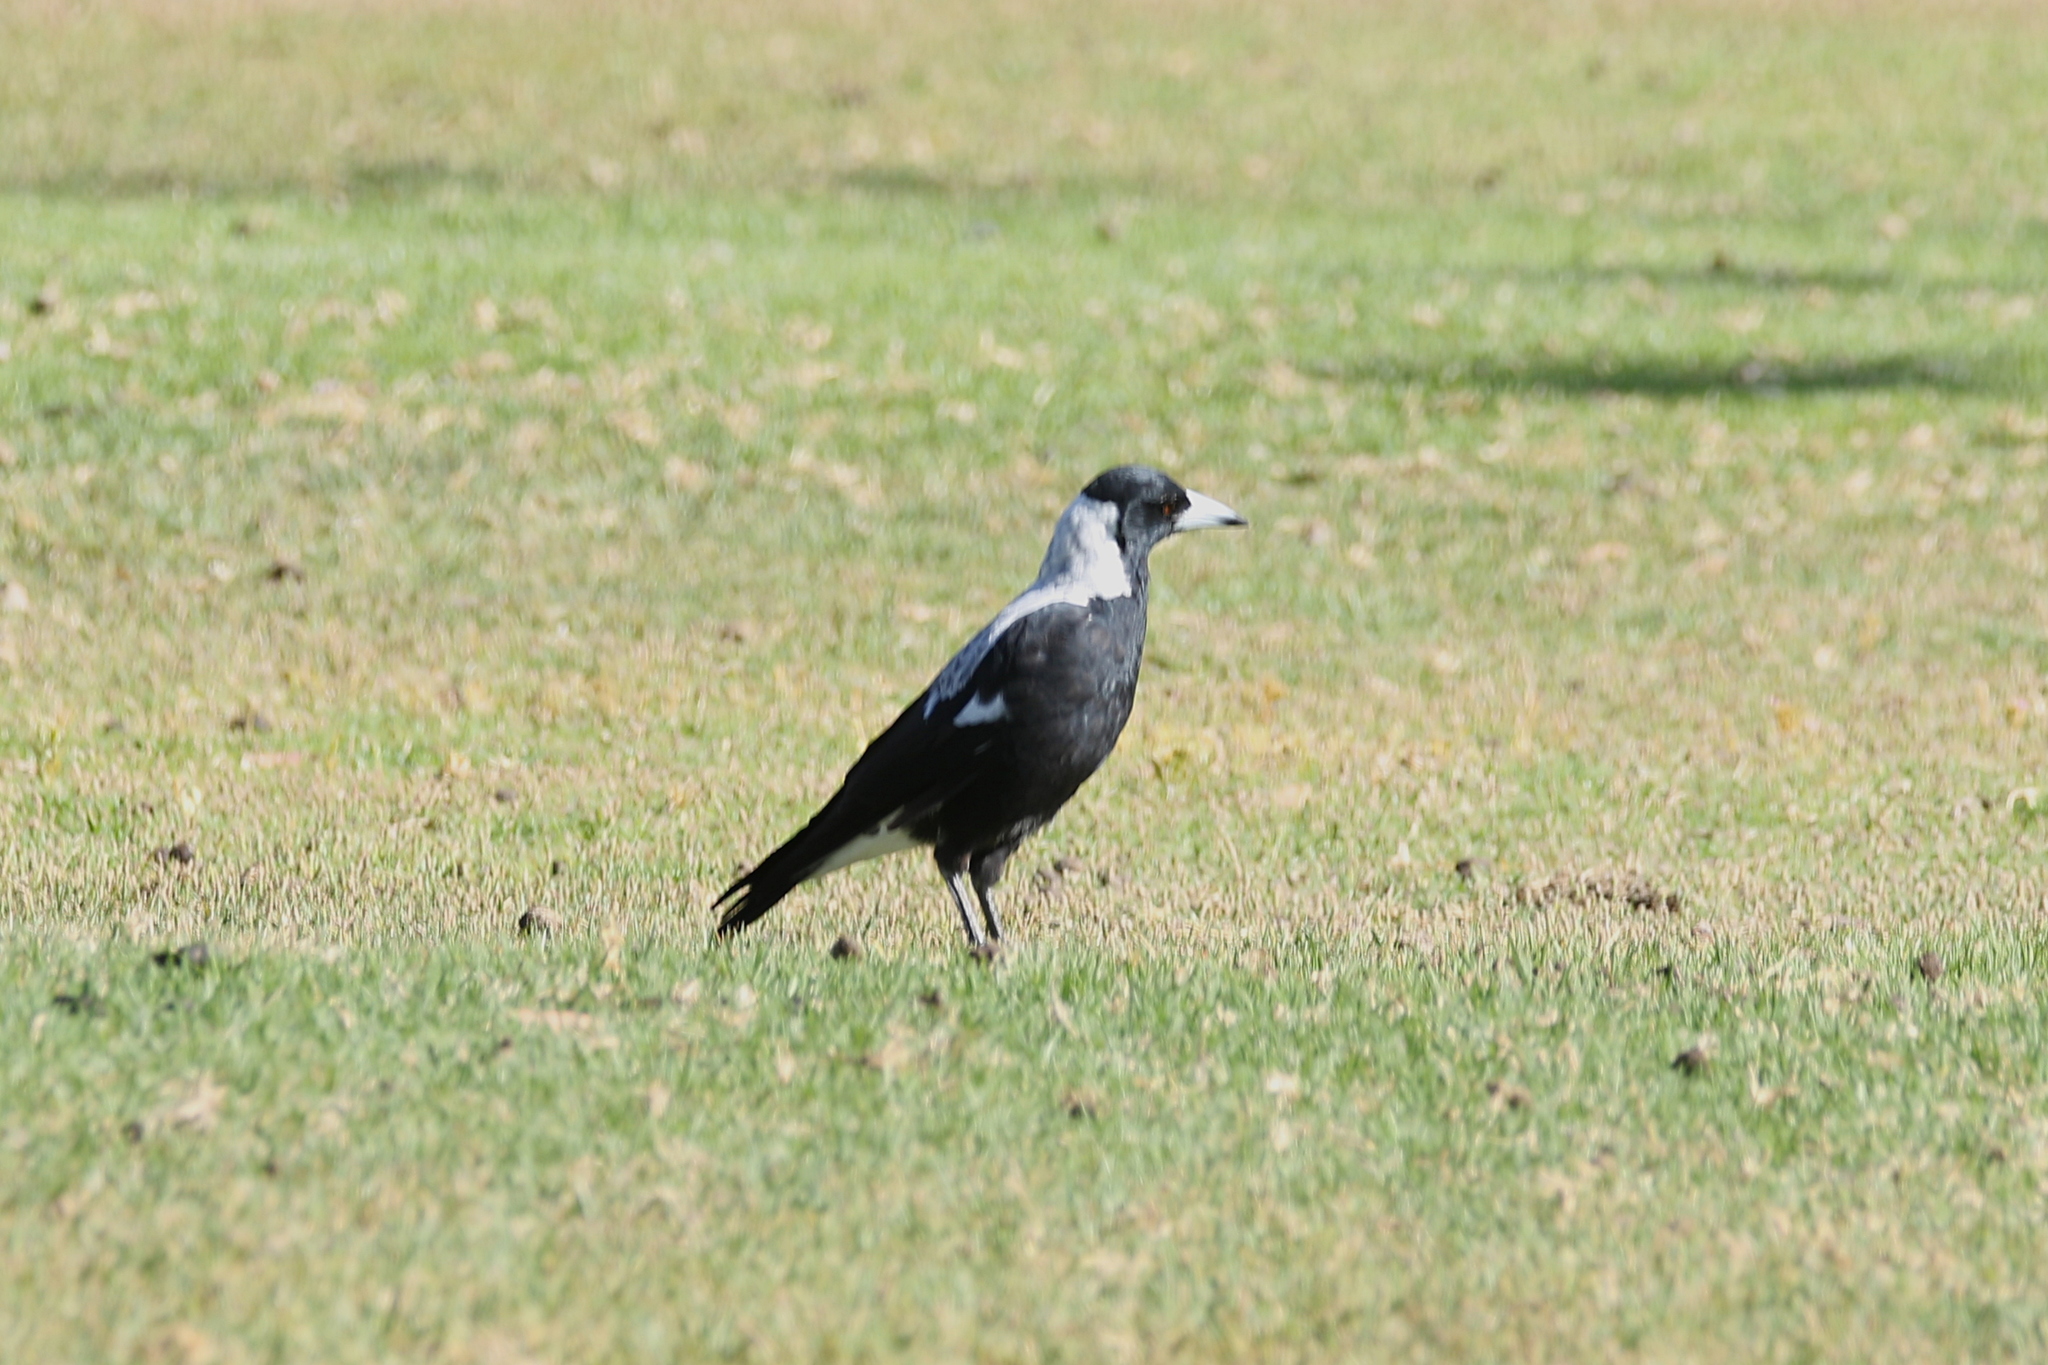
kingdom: Animalia
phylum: Chordata
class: Aves
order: Passeriformes
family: Cracticidae
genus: Gymnorhina
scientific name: Gymnorhina tibicen
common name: Australian magpie
